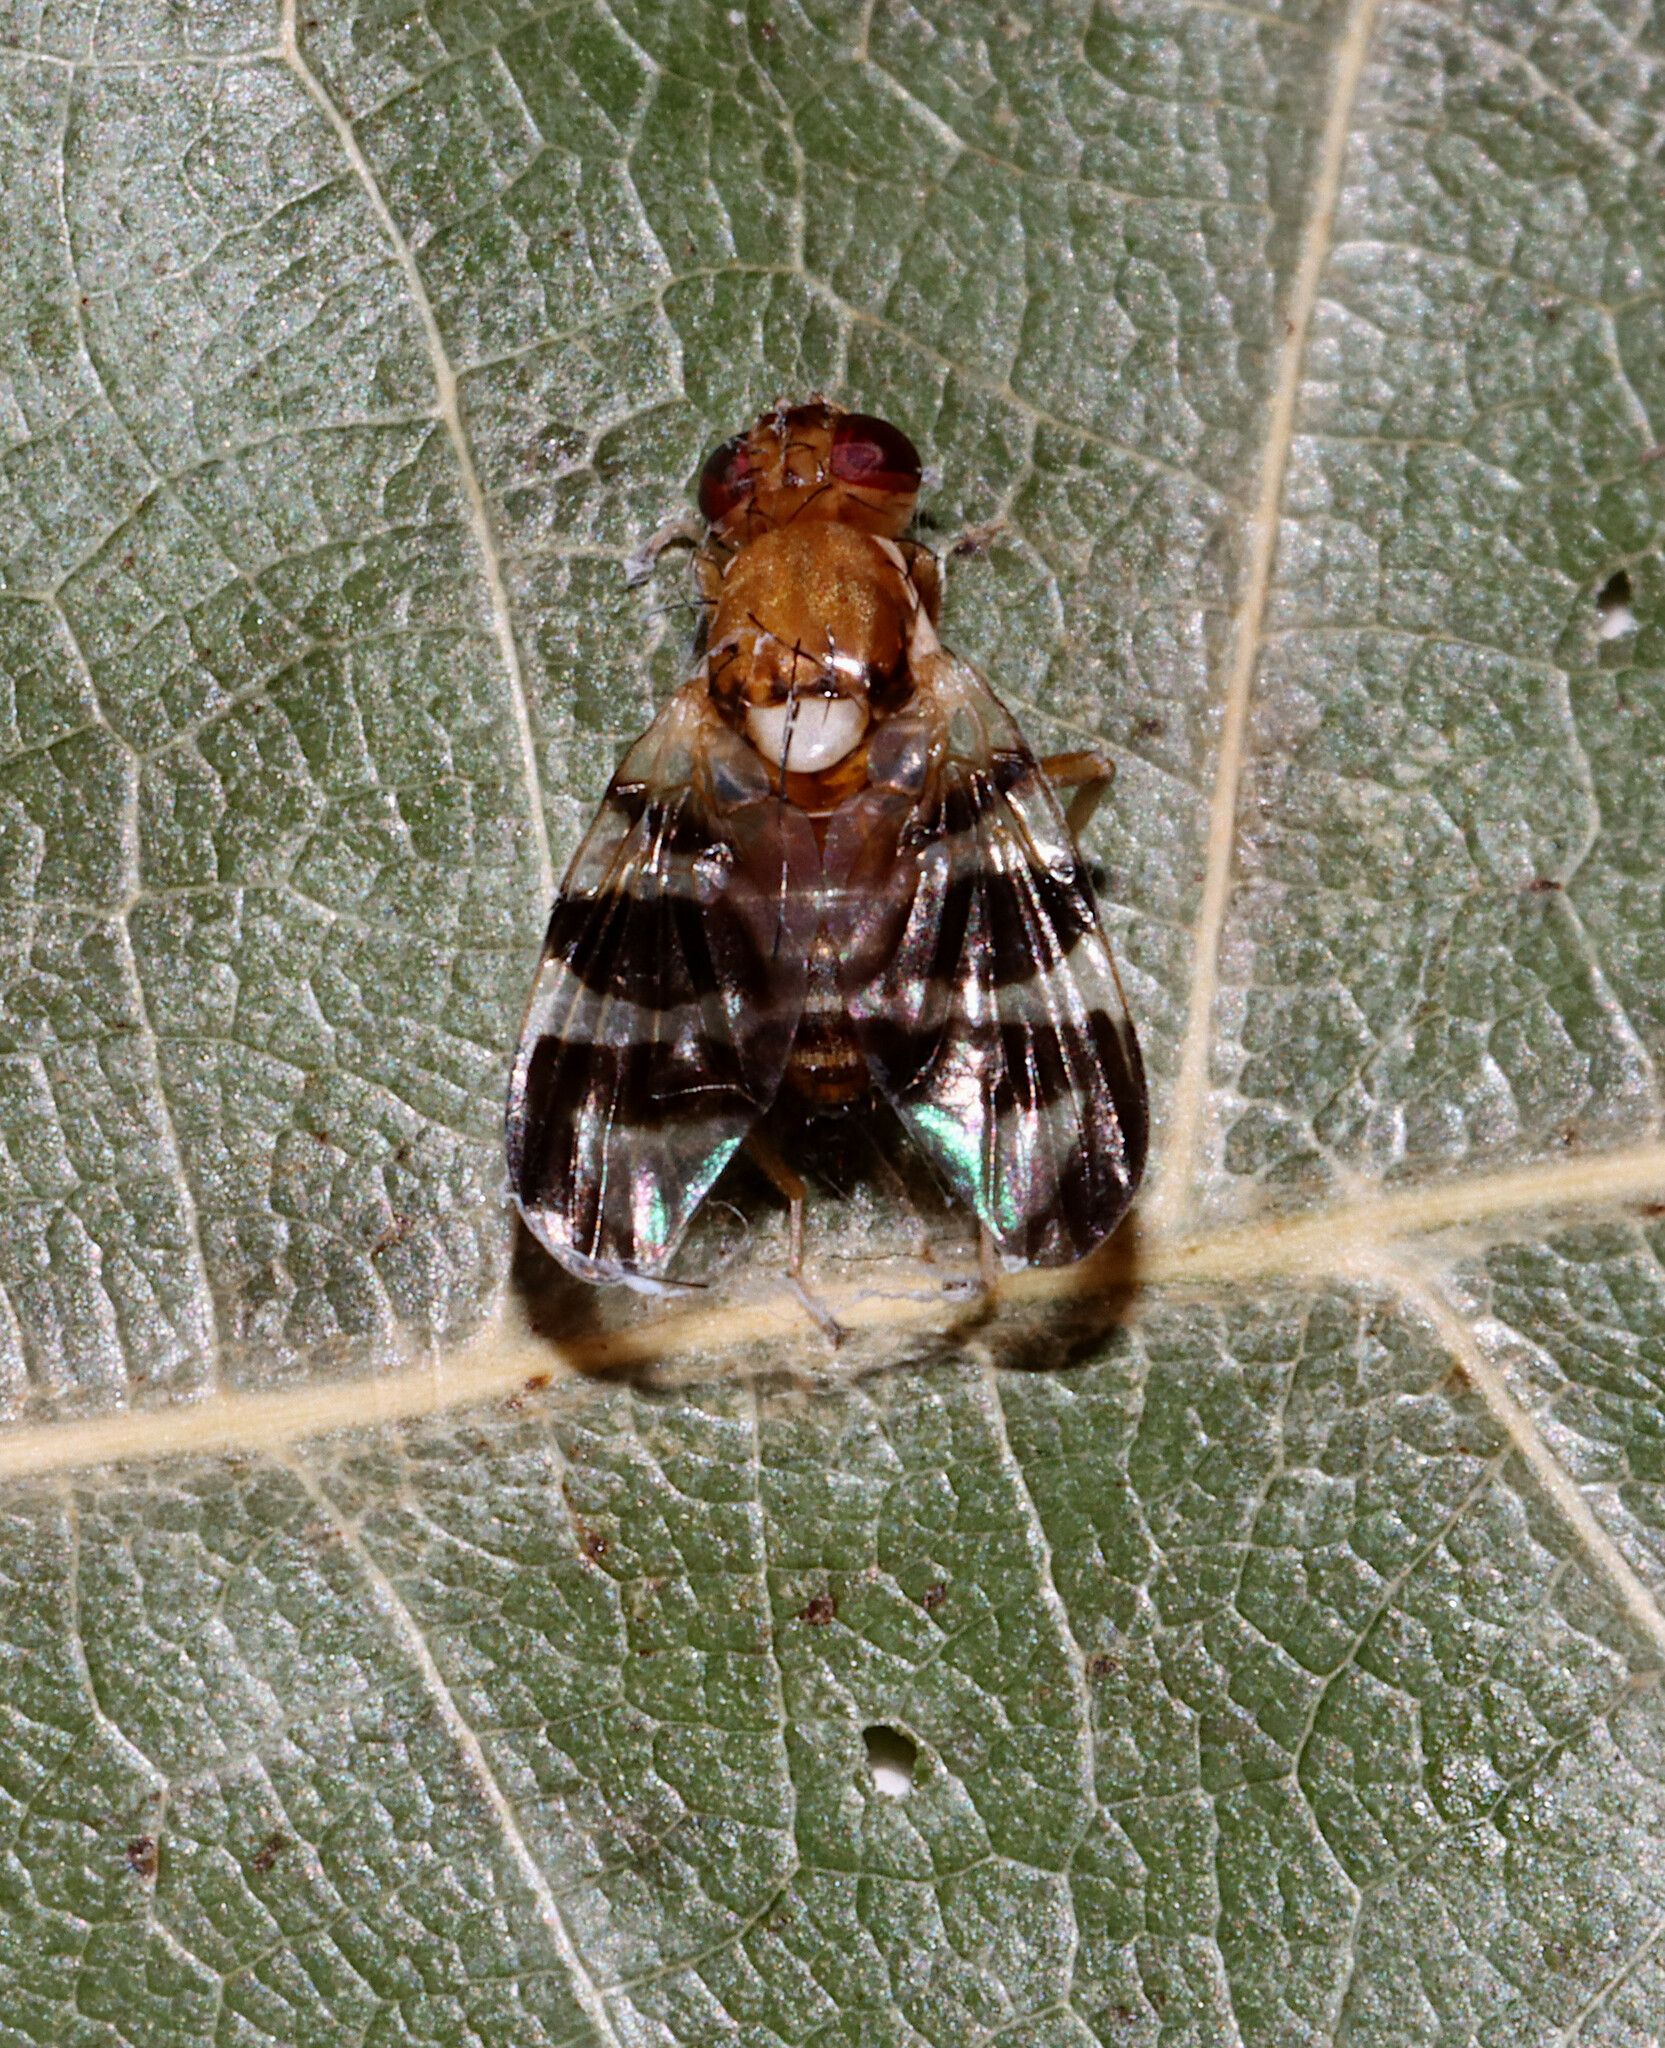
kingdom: Animalia
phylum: Arthropoda
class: Insecta
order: Diptera
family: Tephritidae
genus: Rhagoletis
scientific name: Rhagoletis completa
